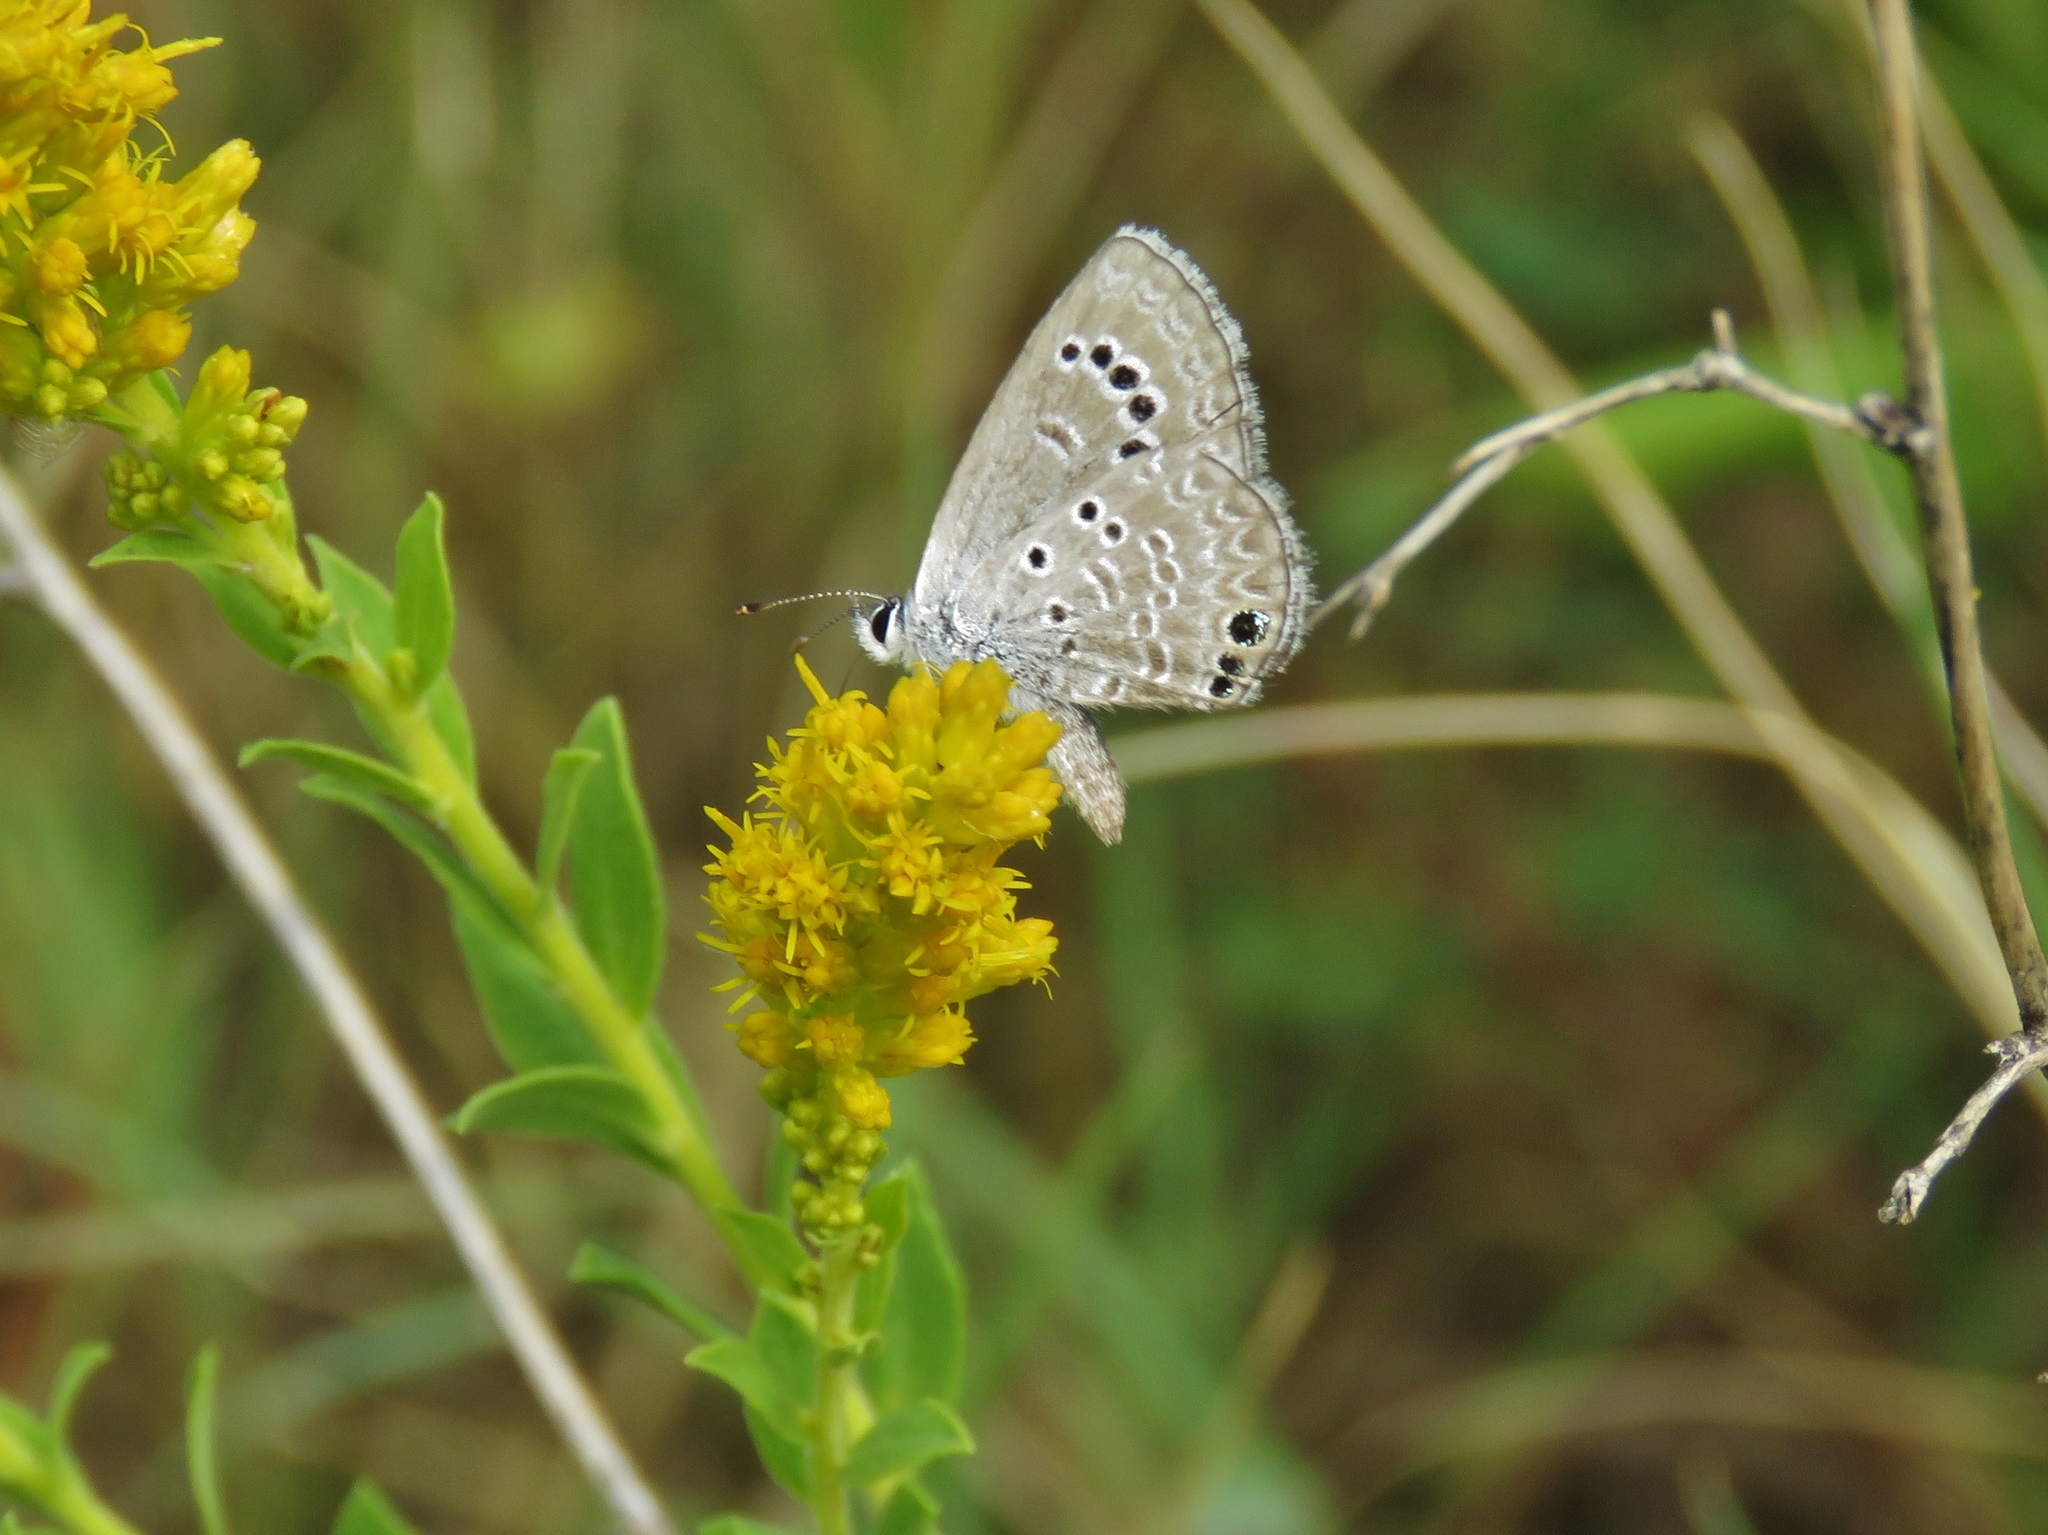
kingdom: Animalia
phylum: Arthropoda
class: Insecta
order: Lepidoptera
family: Lycaenidae
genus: Echinargus
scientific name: Echinargus isola
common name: Reakirt's blue
